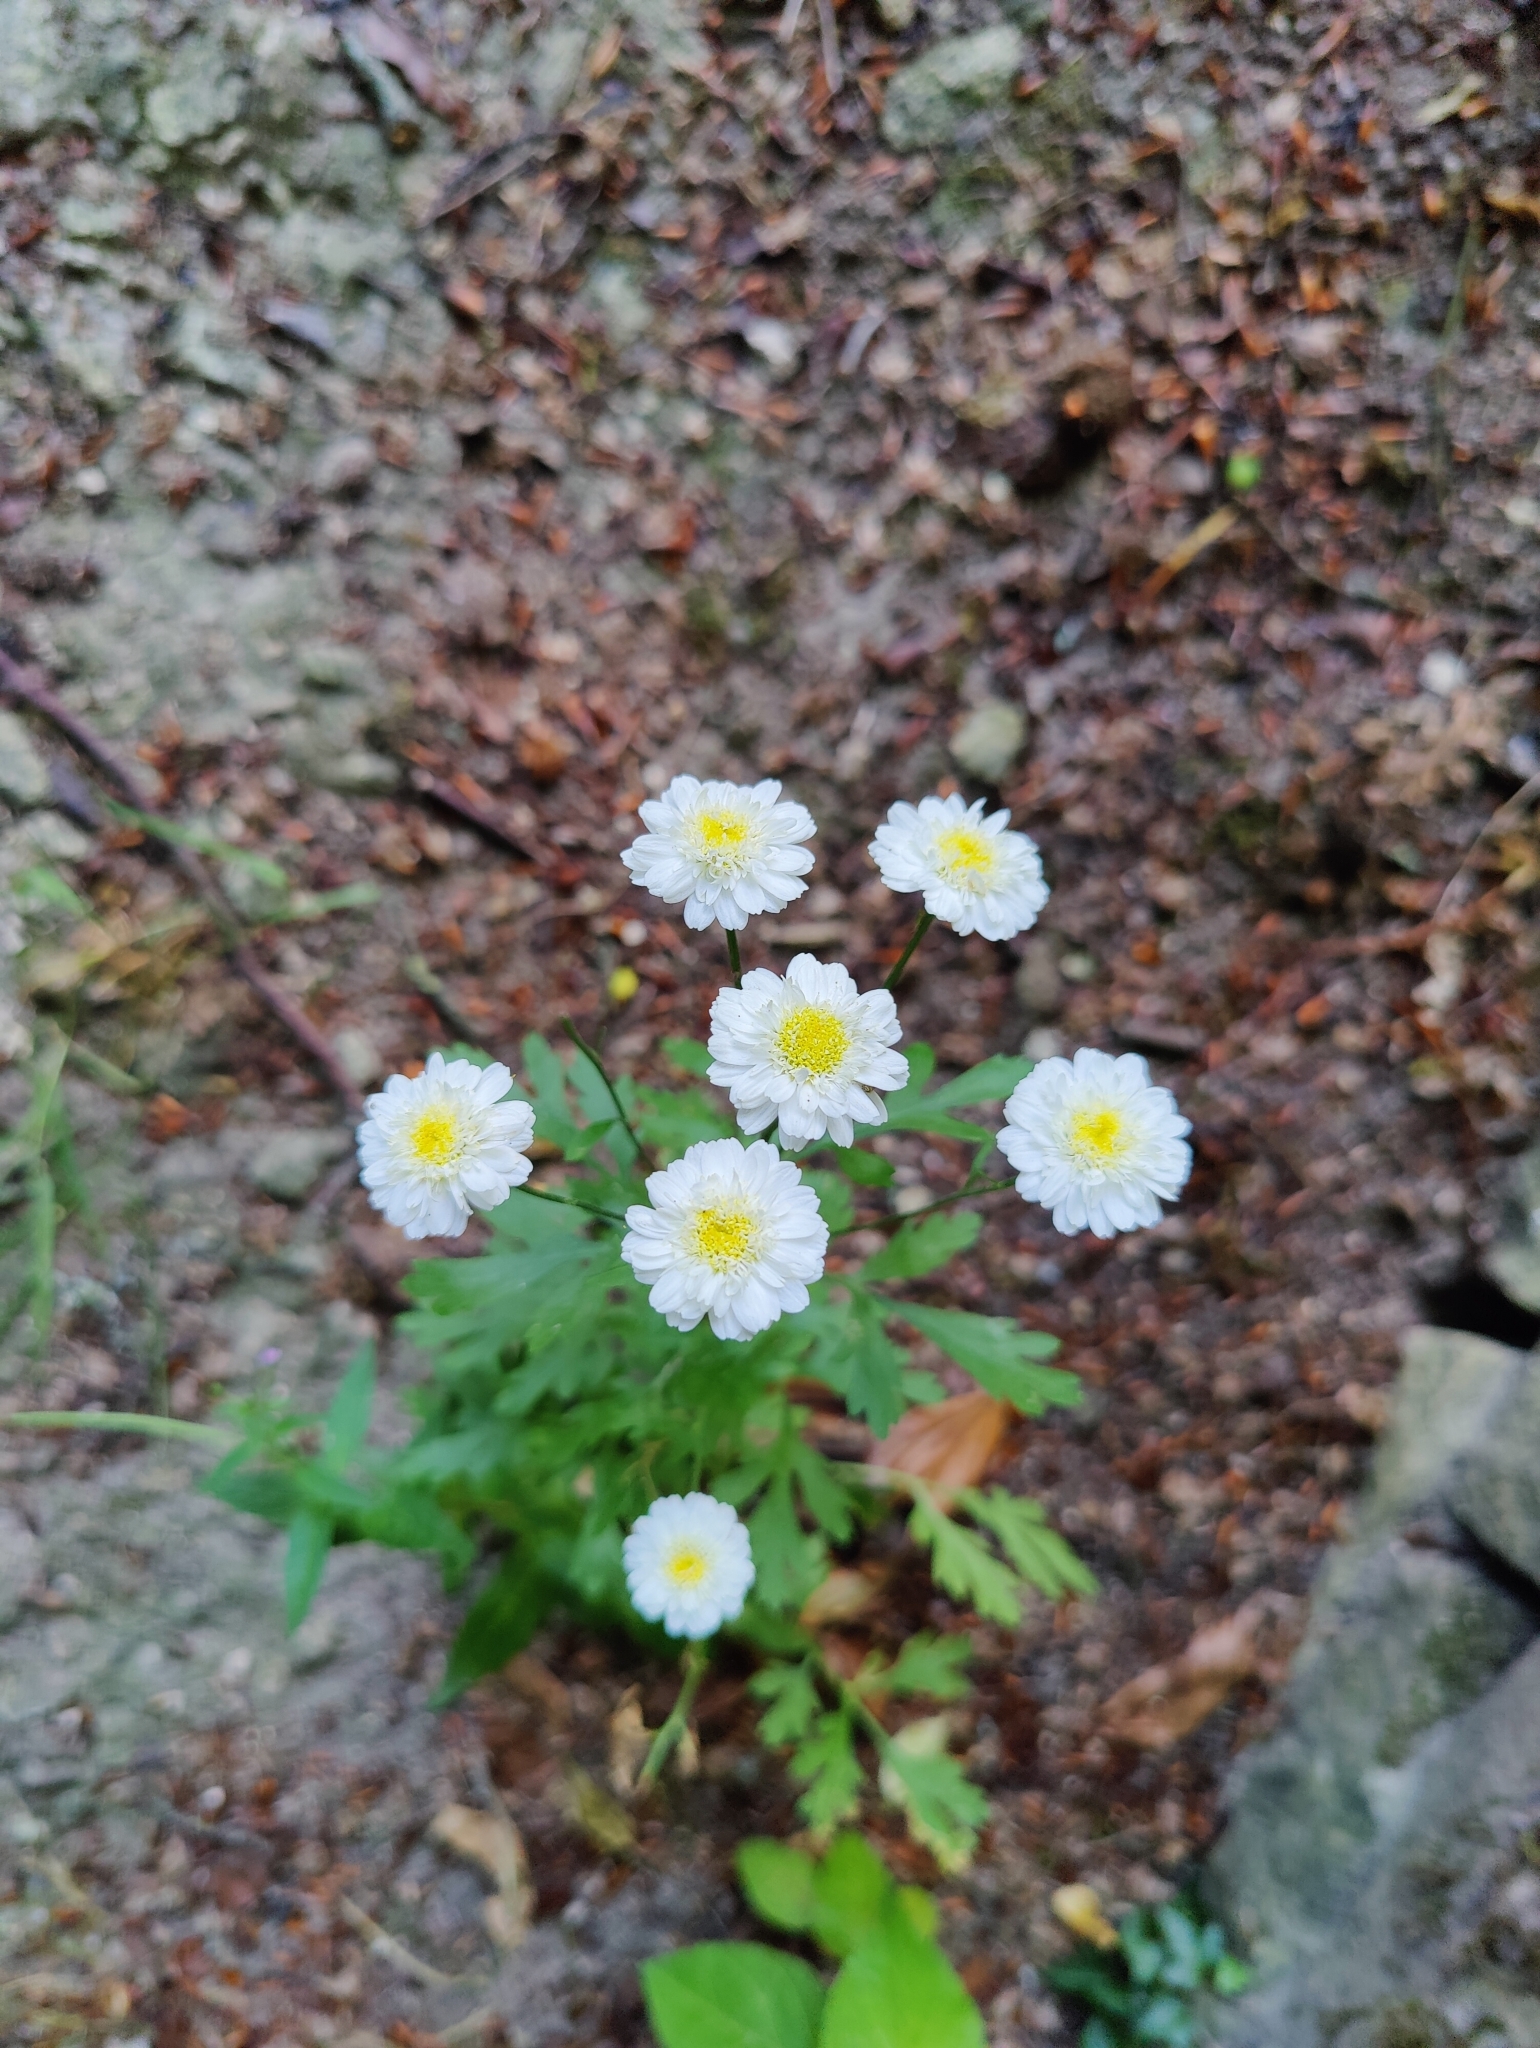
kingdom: Plantae
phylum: Tracheophyta
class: Magnoliopsida
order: Asterales
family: Asteraceae
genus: Tanacetum
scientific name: Tanacetum parthenium
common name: Feverfew
